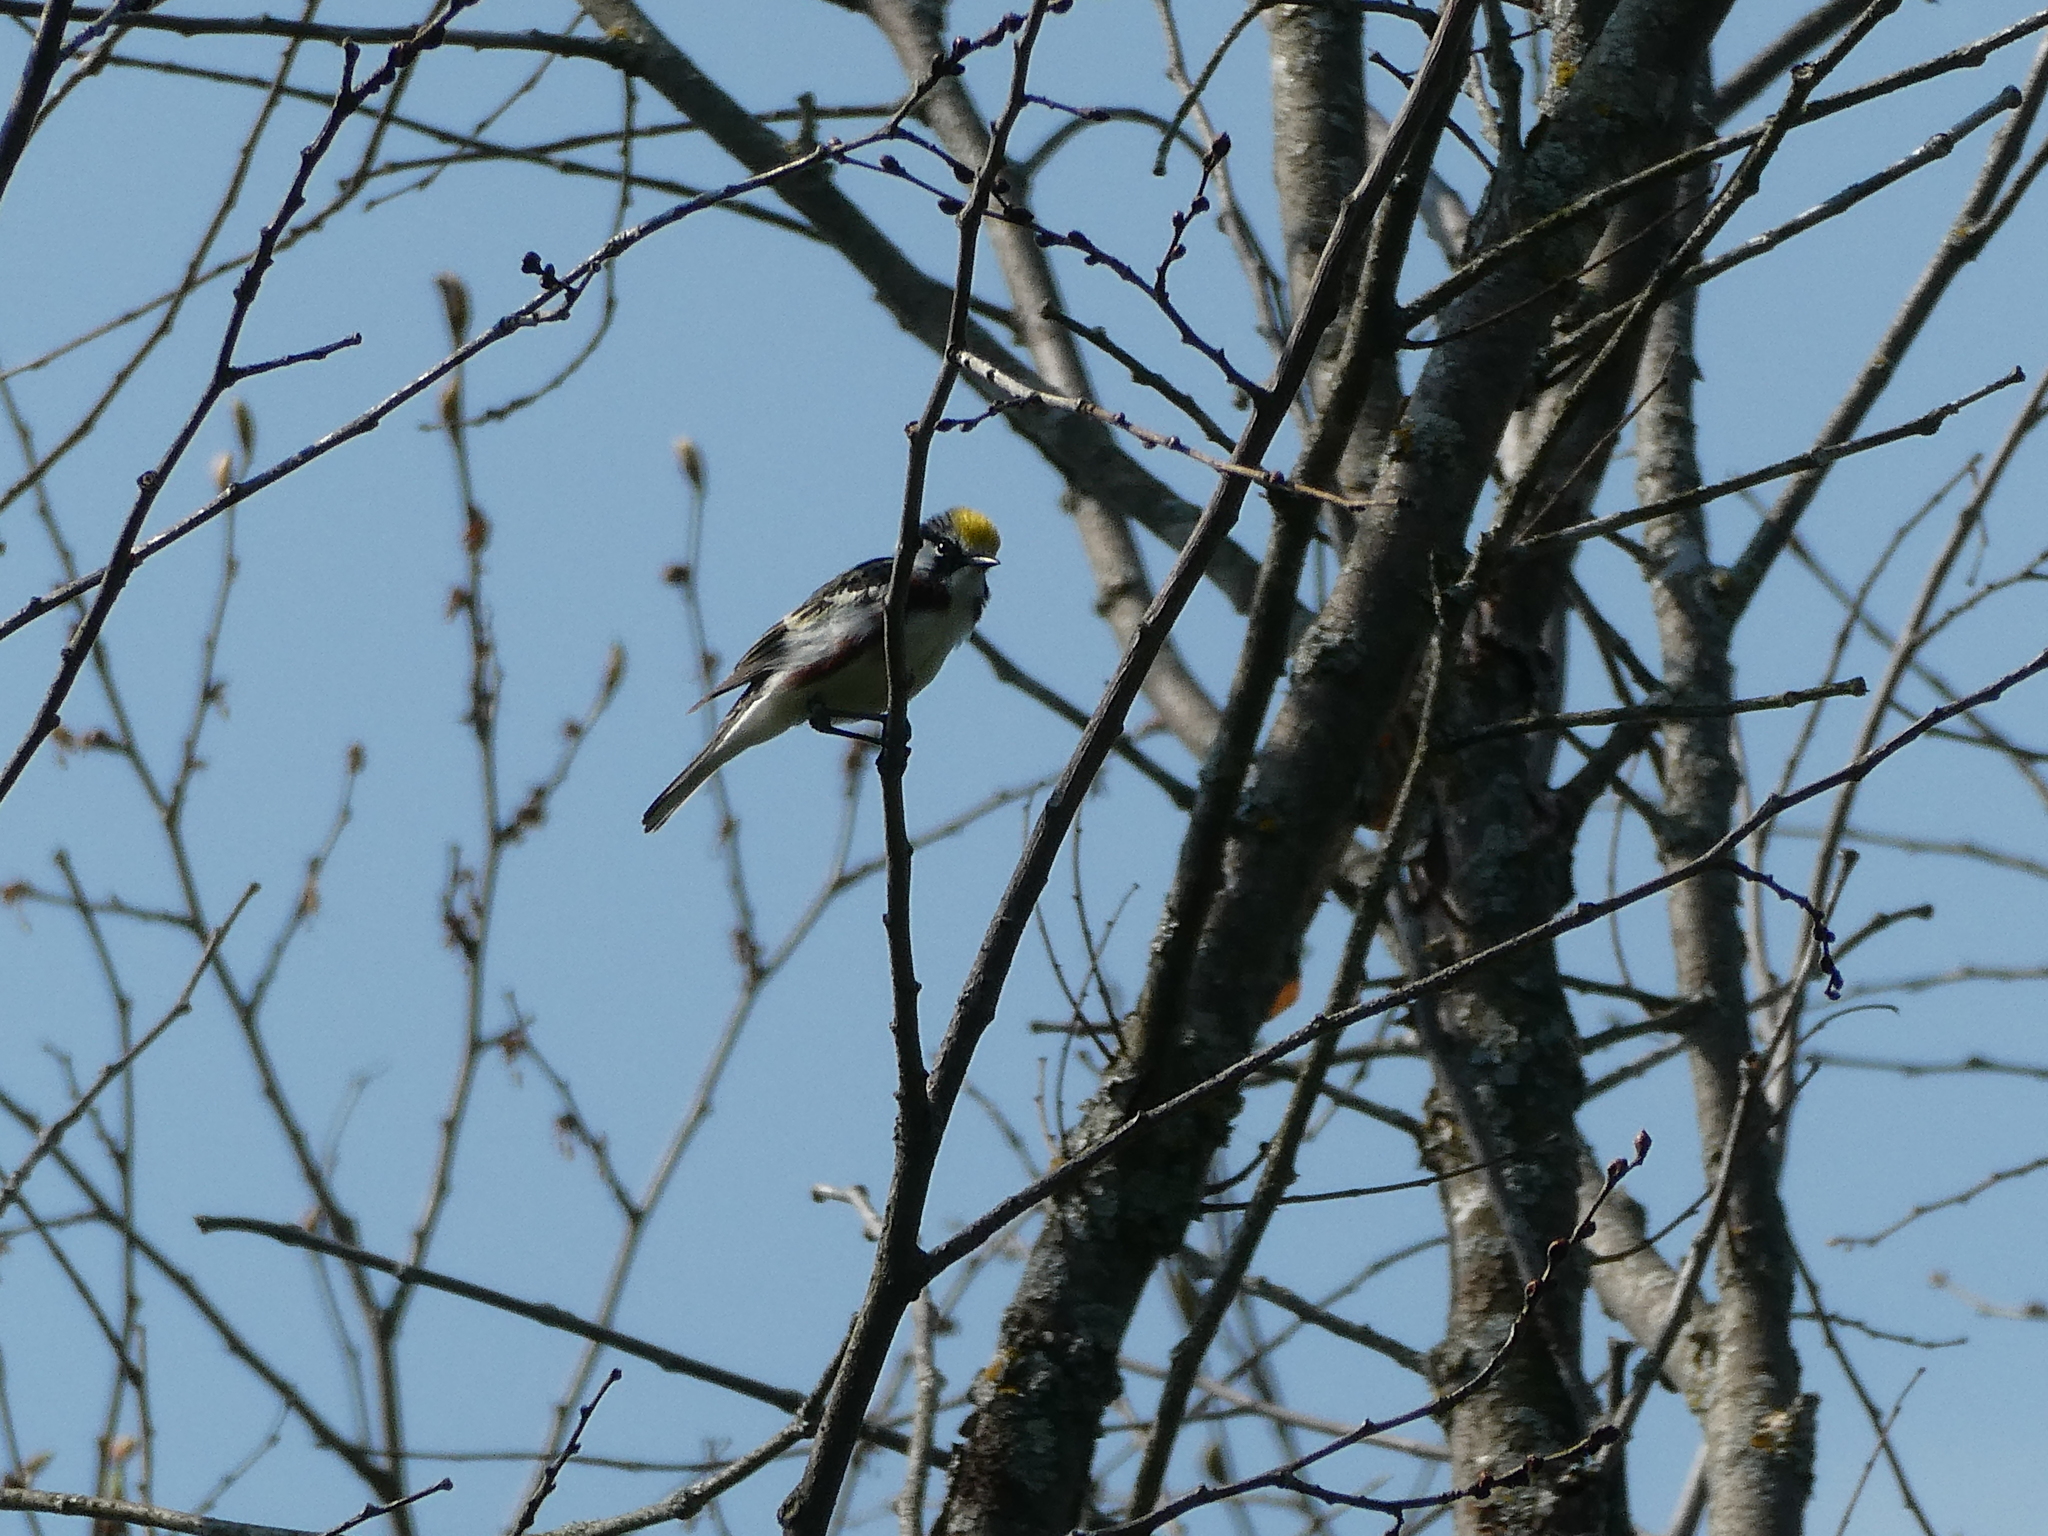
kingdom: Animalia
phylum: Chordata
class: Aves
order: Passeriformes
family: Parulidae
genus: Setophaga
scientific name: Setophaga pensylvanica
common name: Chestnut-sided warbler
